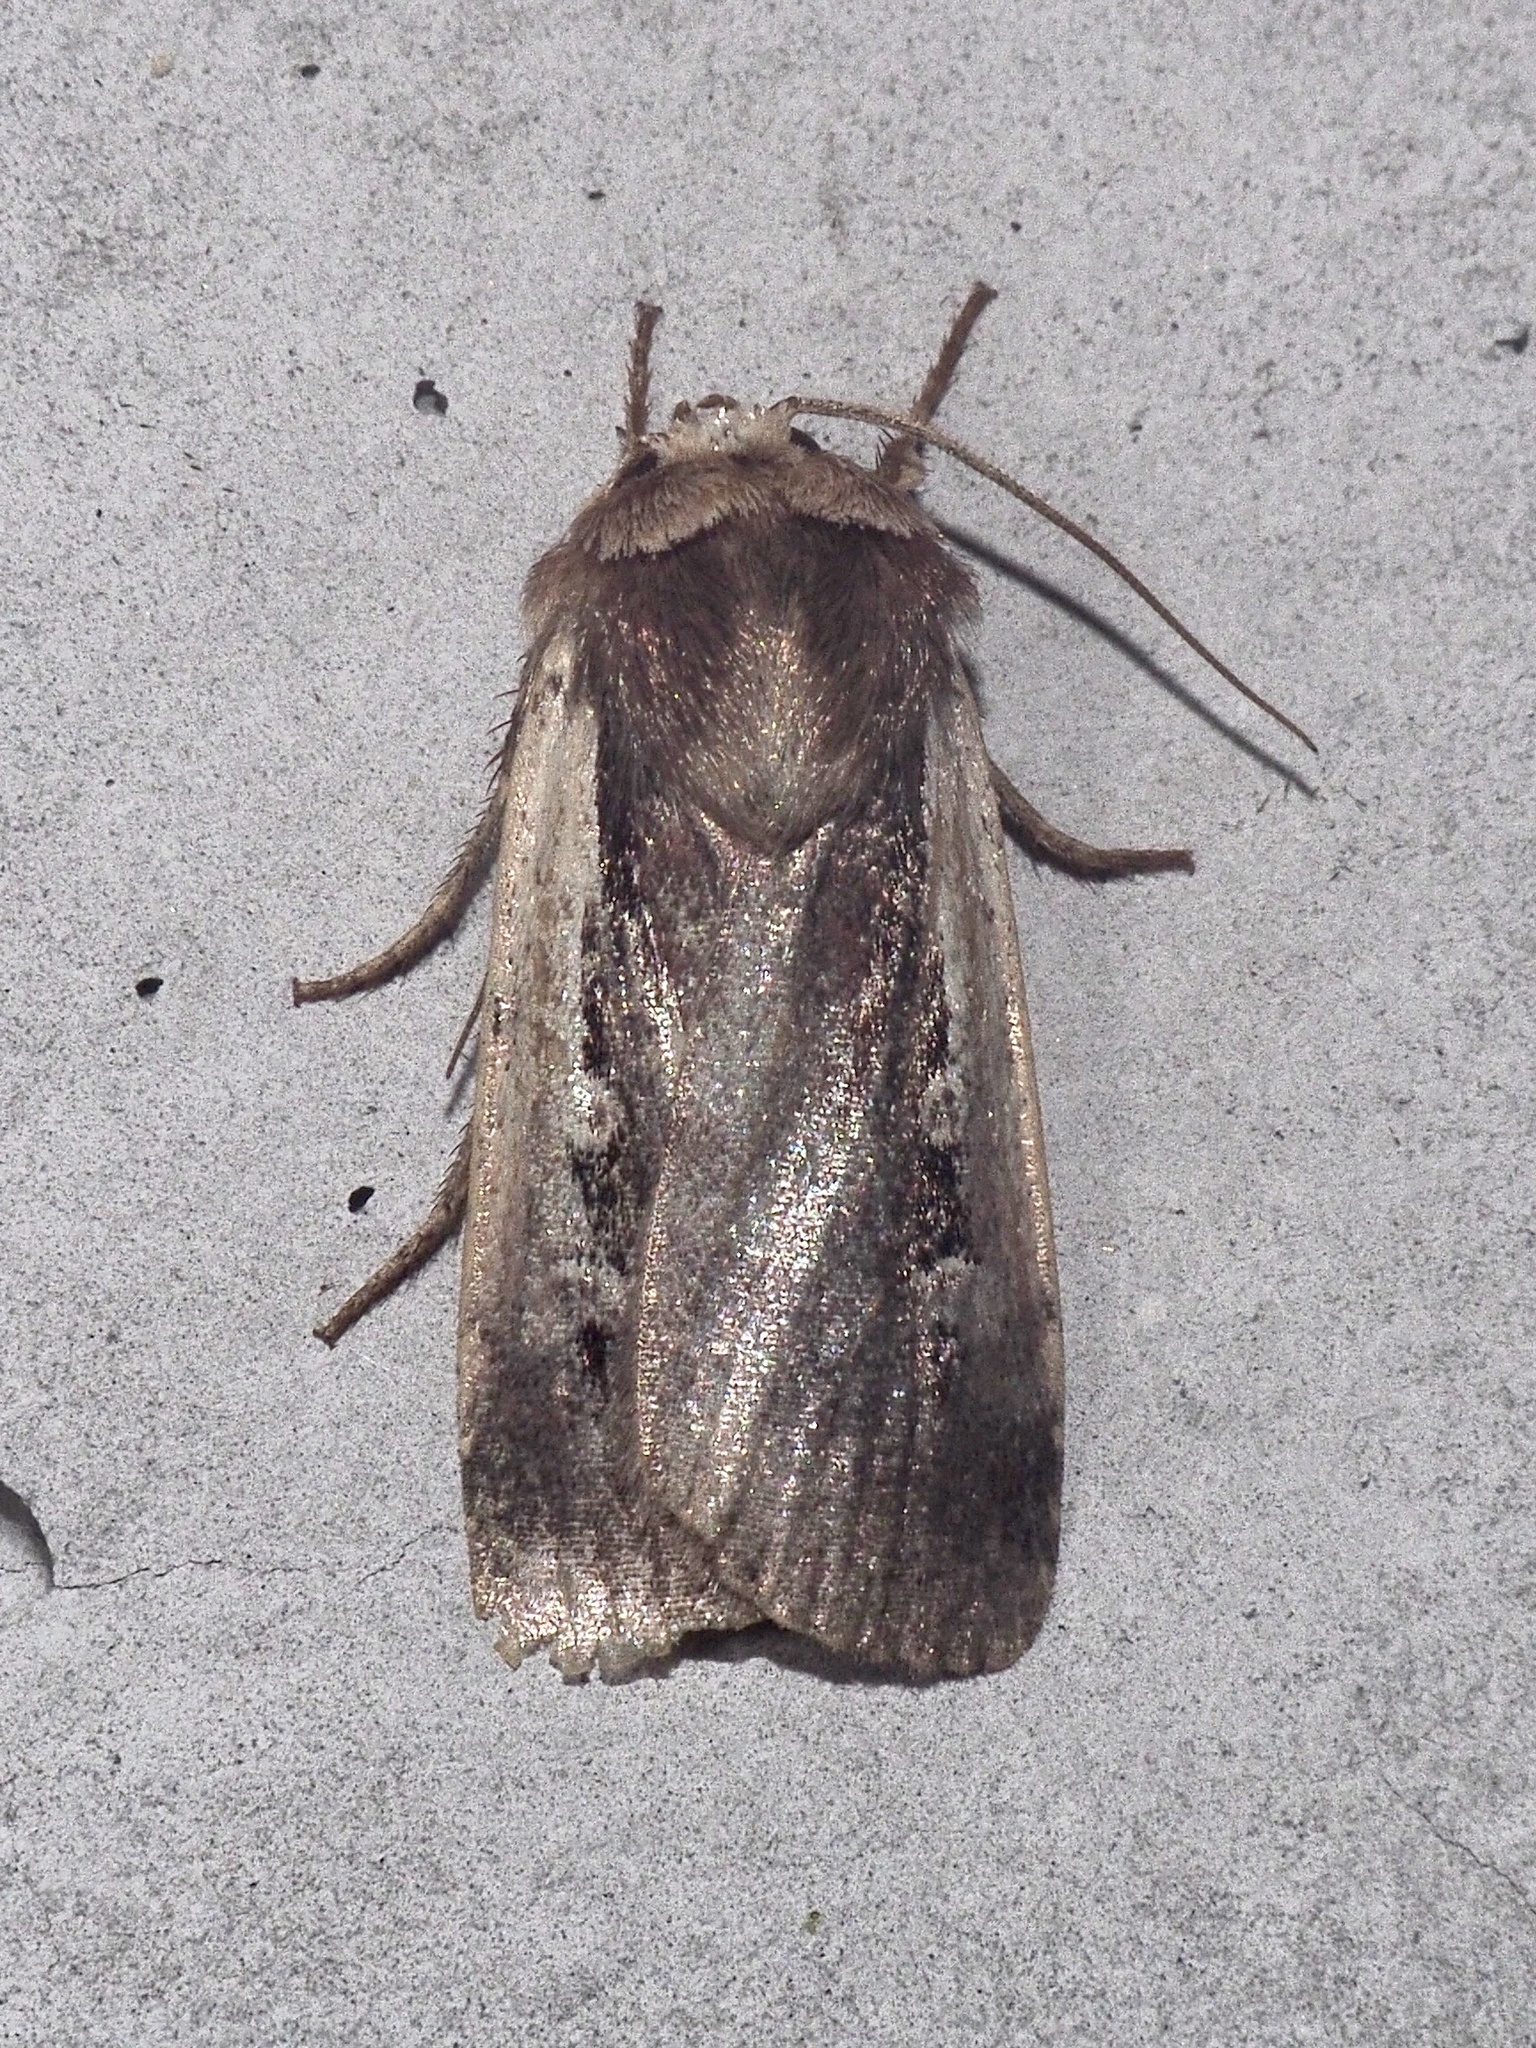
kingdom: Animalia
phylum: Arthropoda
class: Insecta
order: Lepidoptera
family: Noctuidae
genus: Ochropleura
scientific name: Ochropleura plecta
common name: Flame shoulder
